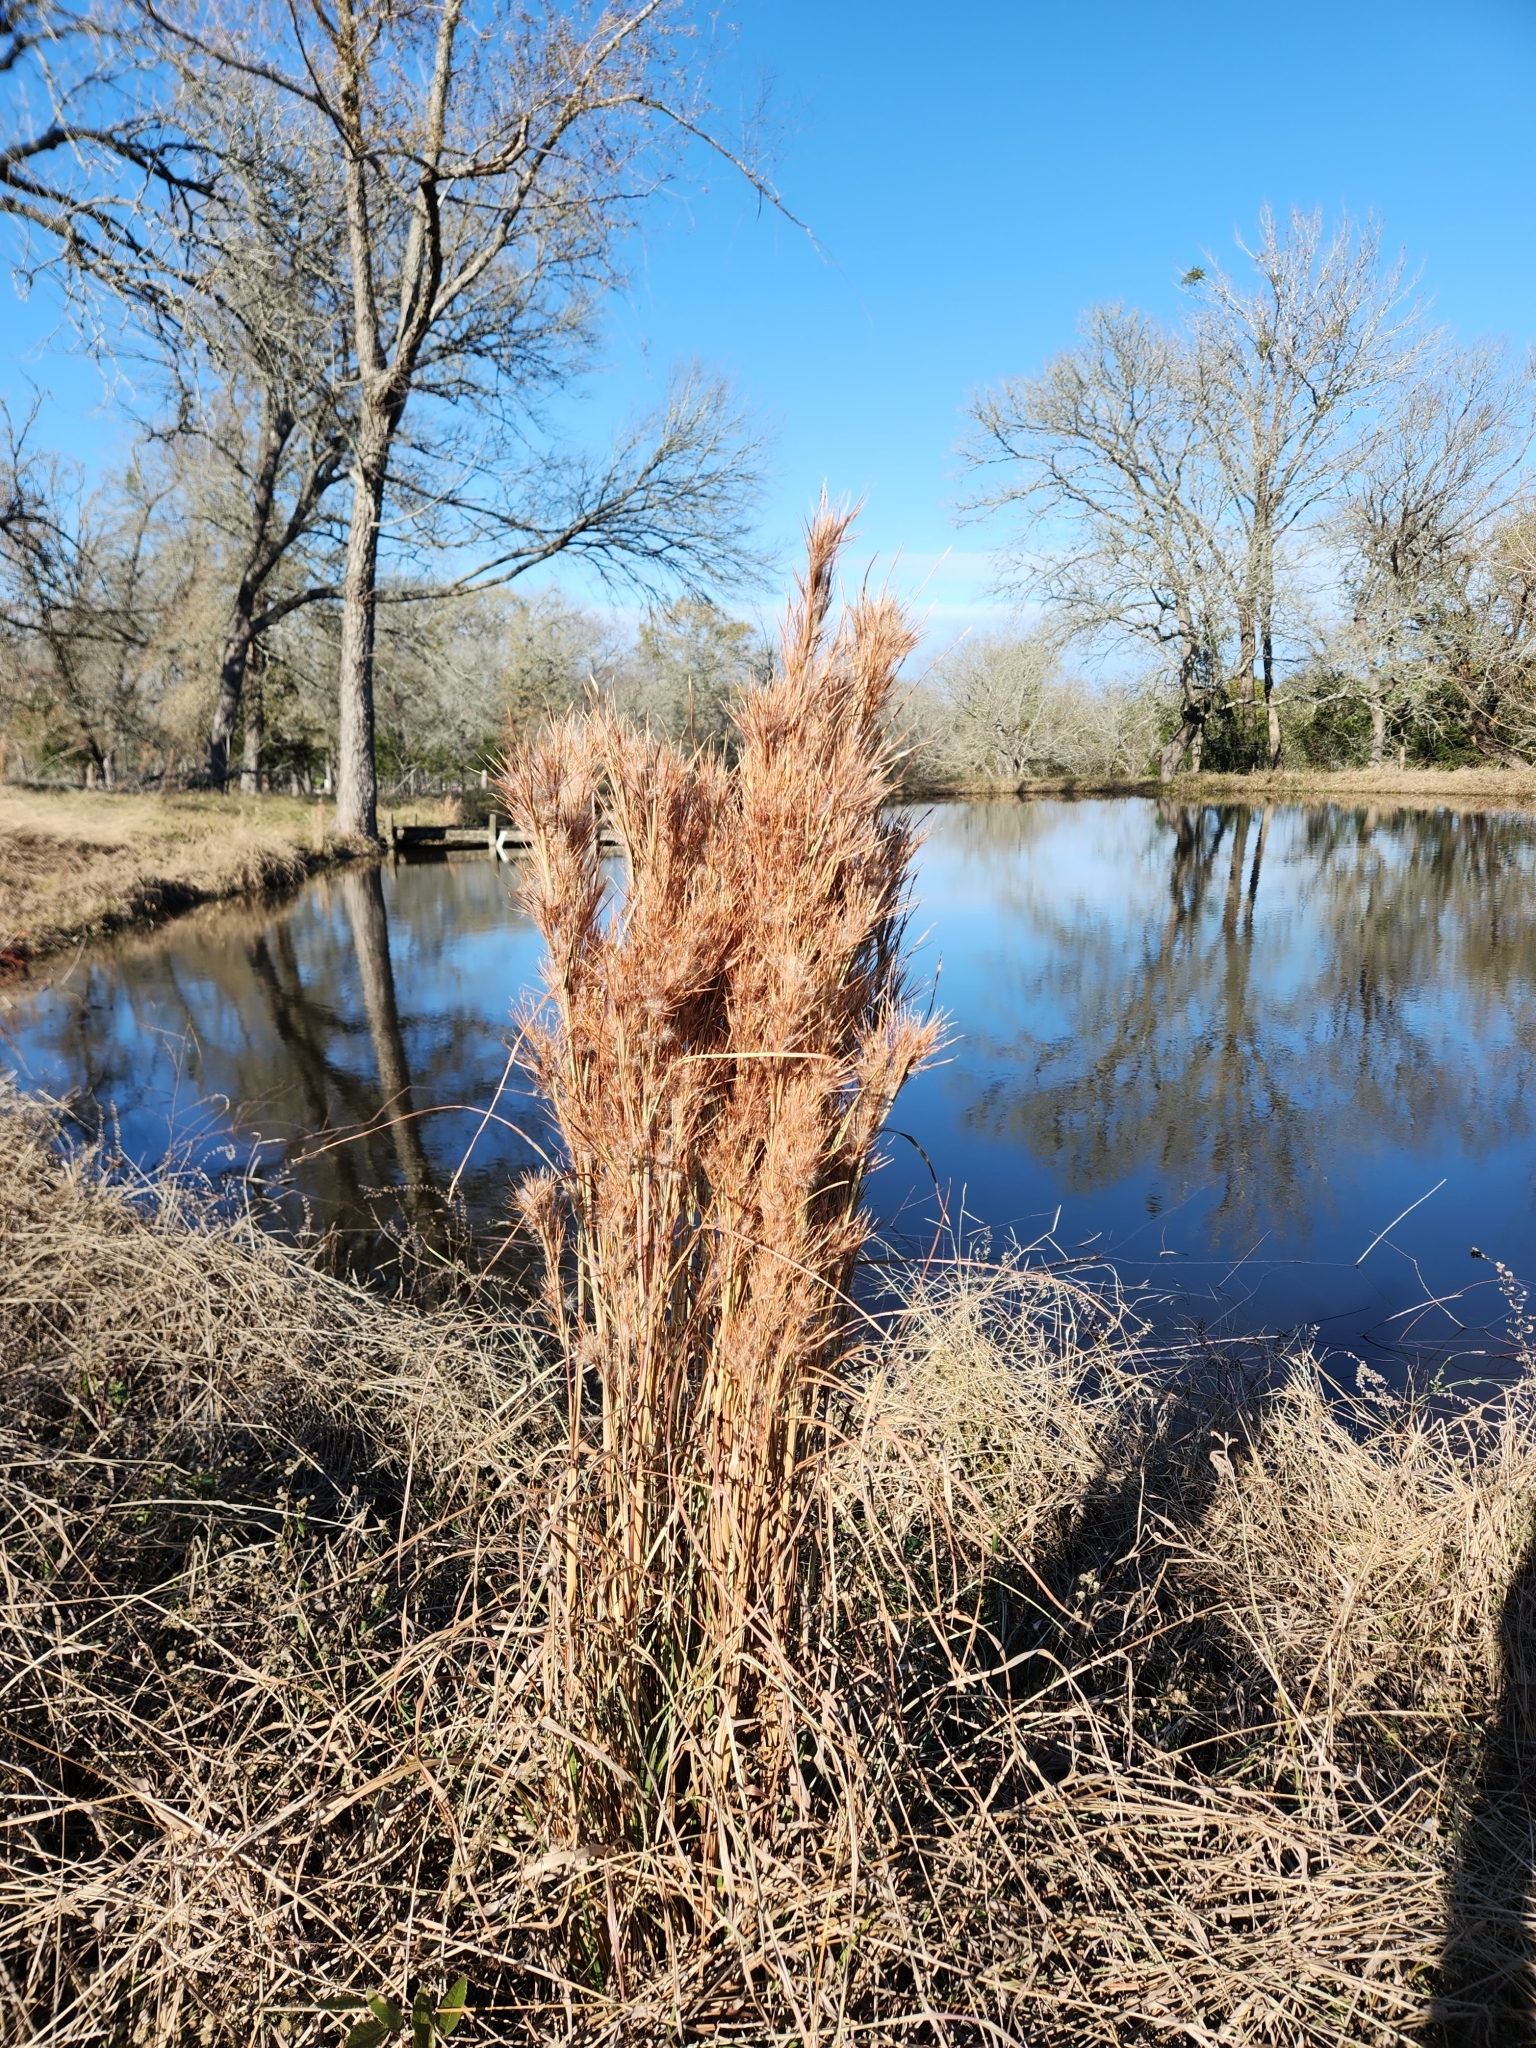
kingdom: Plantae
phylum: Tracheophyta
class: Liliopsida
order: Poales
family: Poaceae
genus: Andropogon
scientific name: Andropogon tenuispatheus
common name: Bushy bluestem
